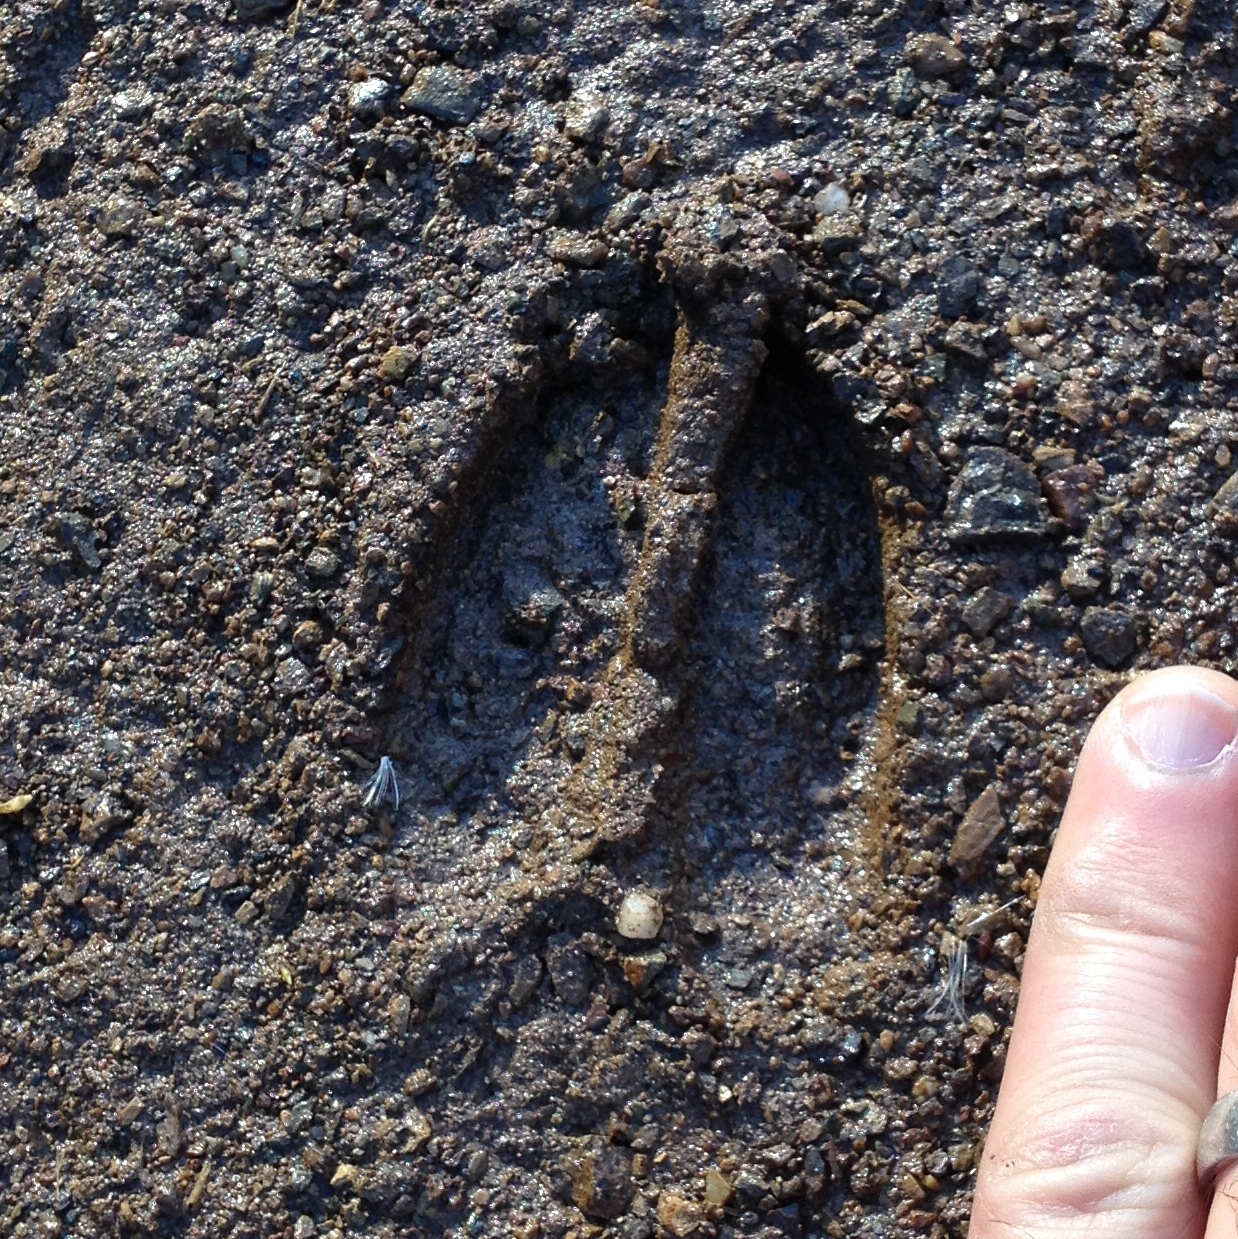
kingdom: Animalia
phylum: Chordata
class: Mammalia
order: Artiodactyla
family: Cervidae
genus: Odocoileus
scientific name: Odocoileus hemionus
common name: Mule deer
